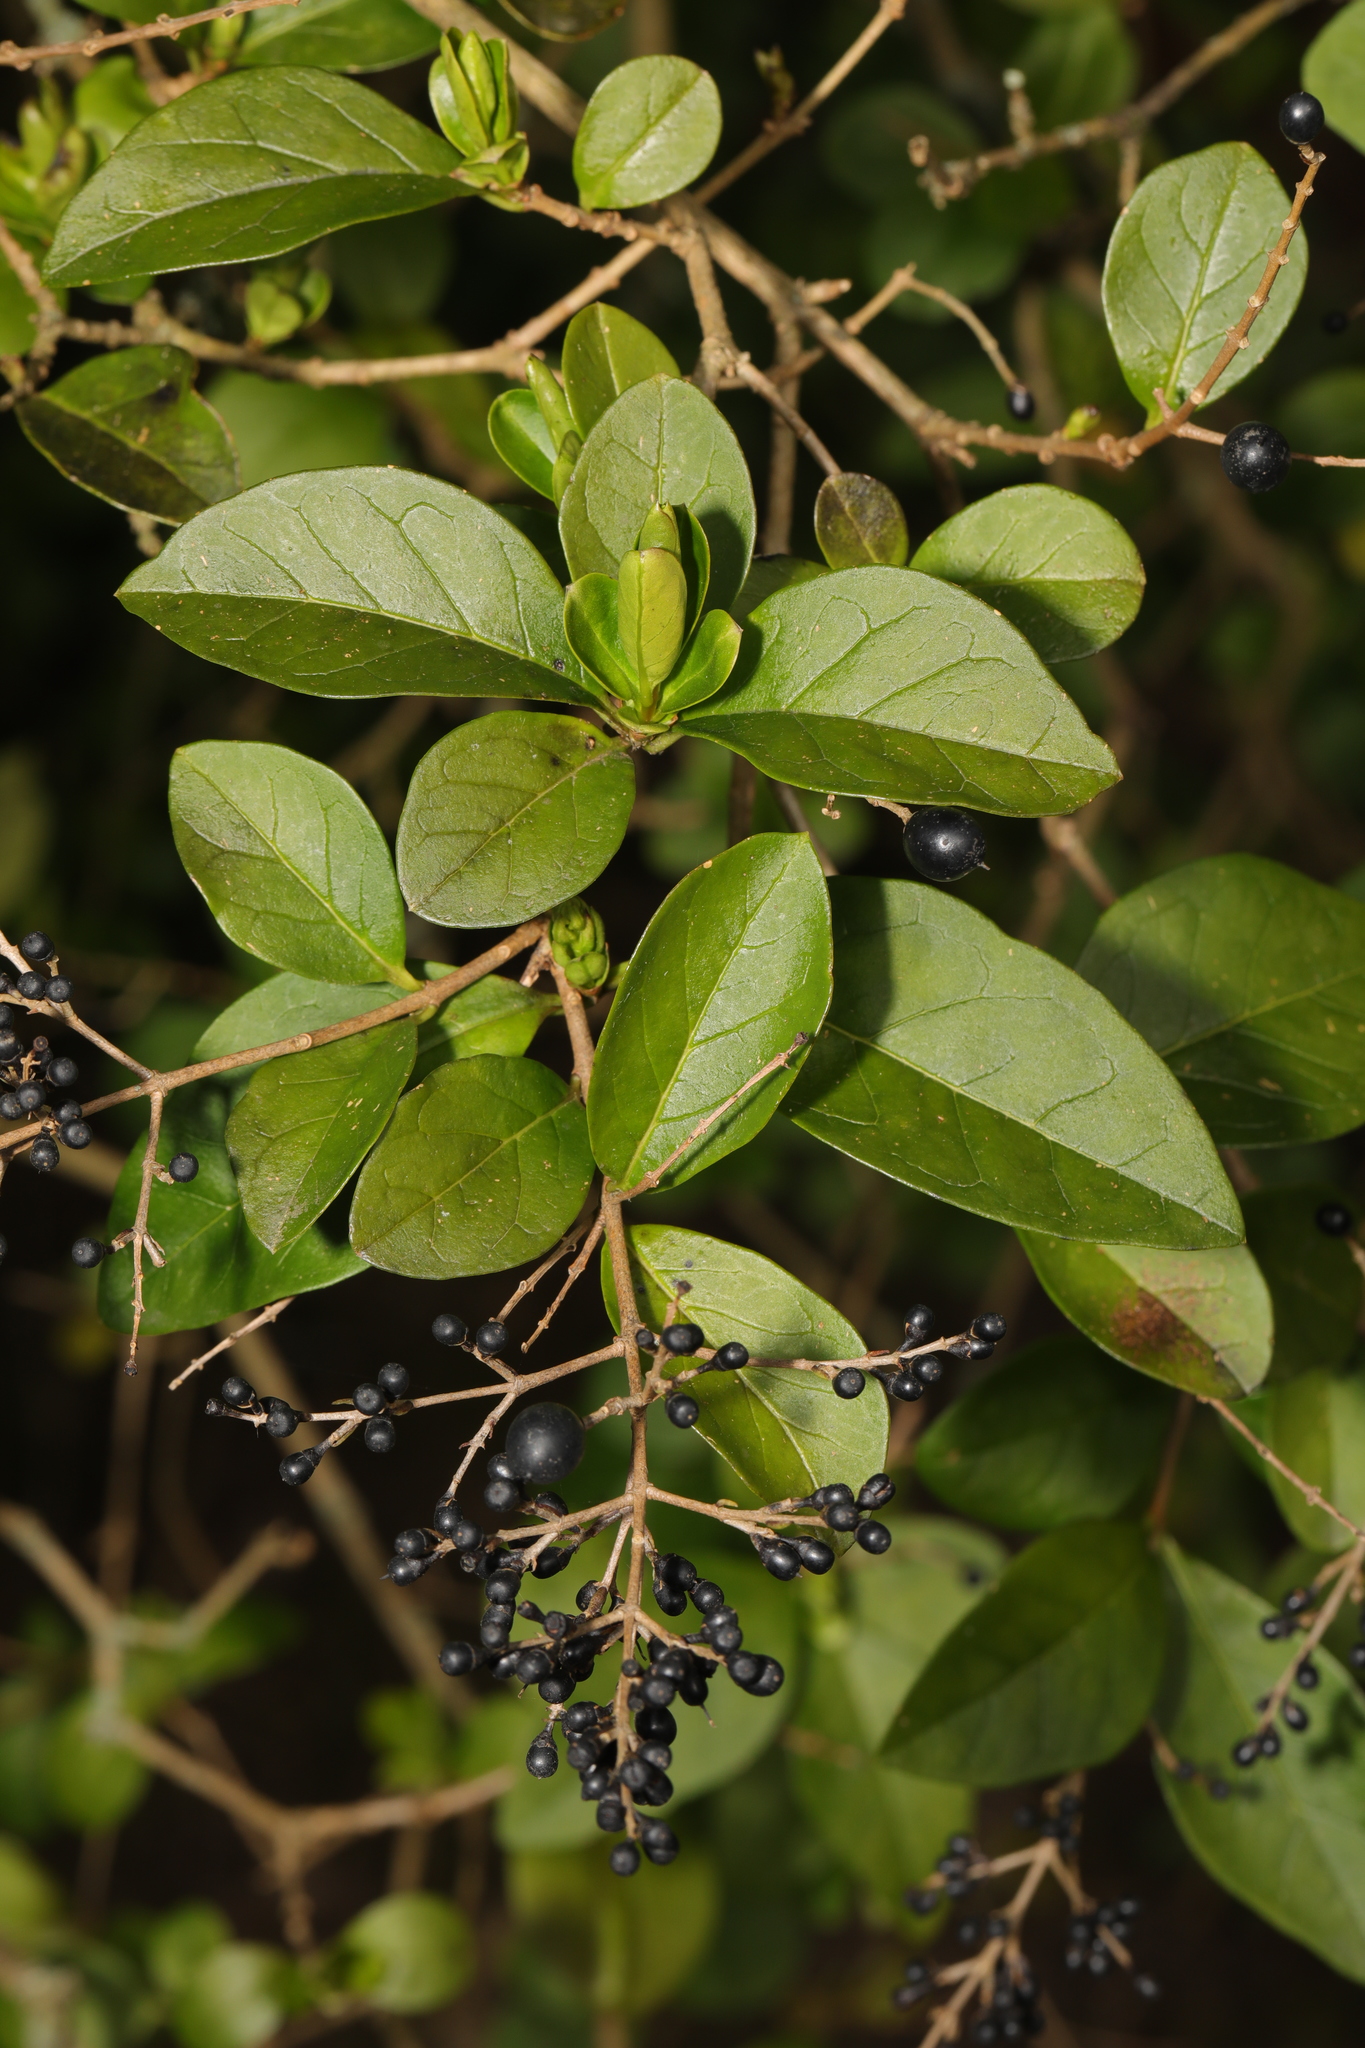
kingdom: Plantae
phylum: Tracheophyta
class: Magnoliopsida
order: Lamiales
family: Oleaceae
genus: Ligustrum
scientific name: Ligustrum ovalifolium
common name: California privet
